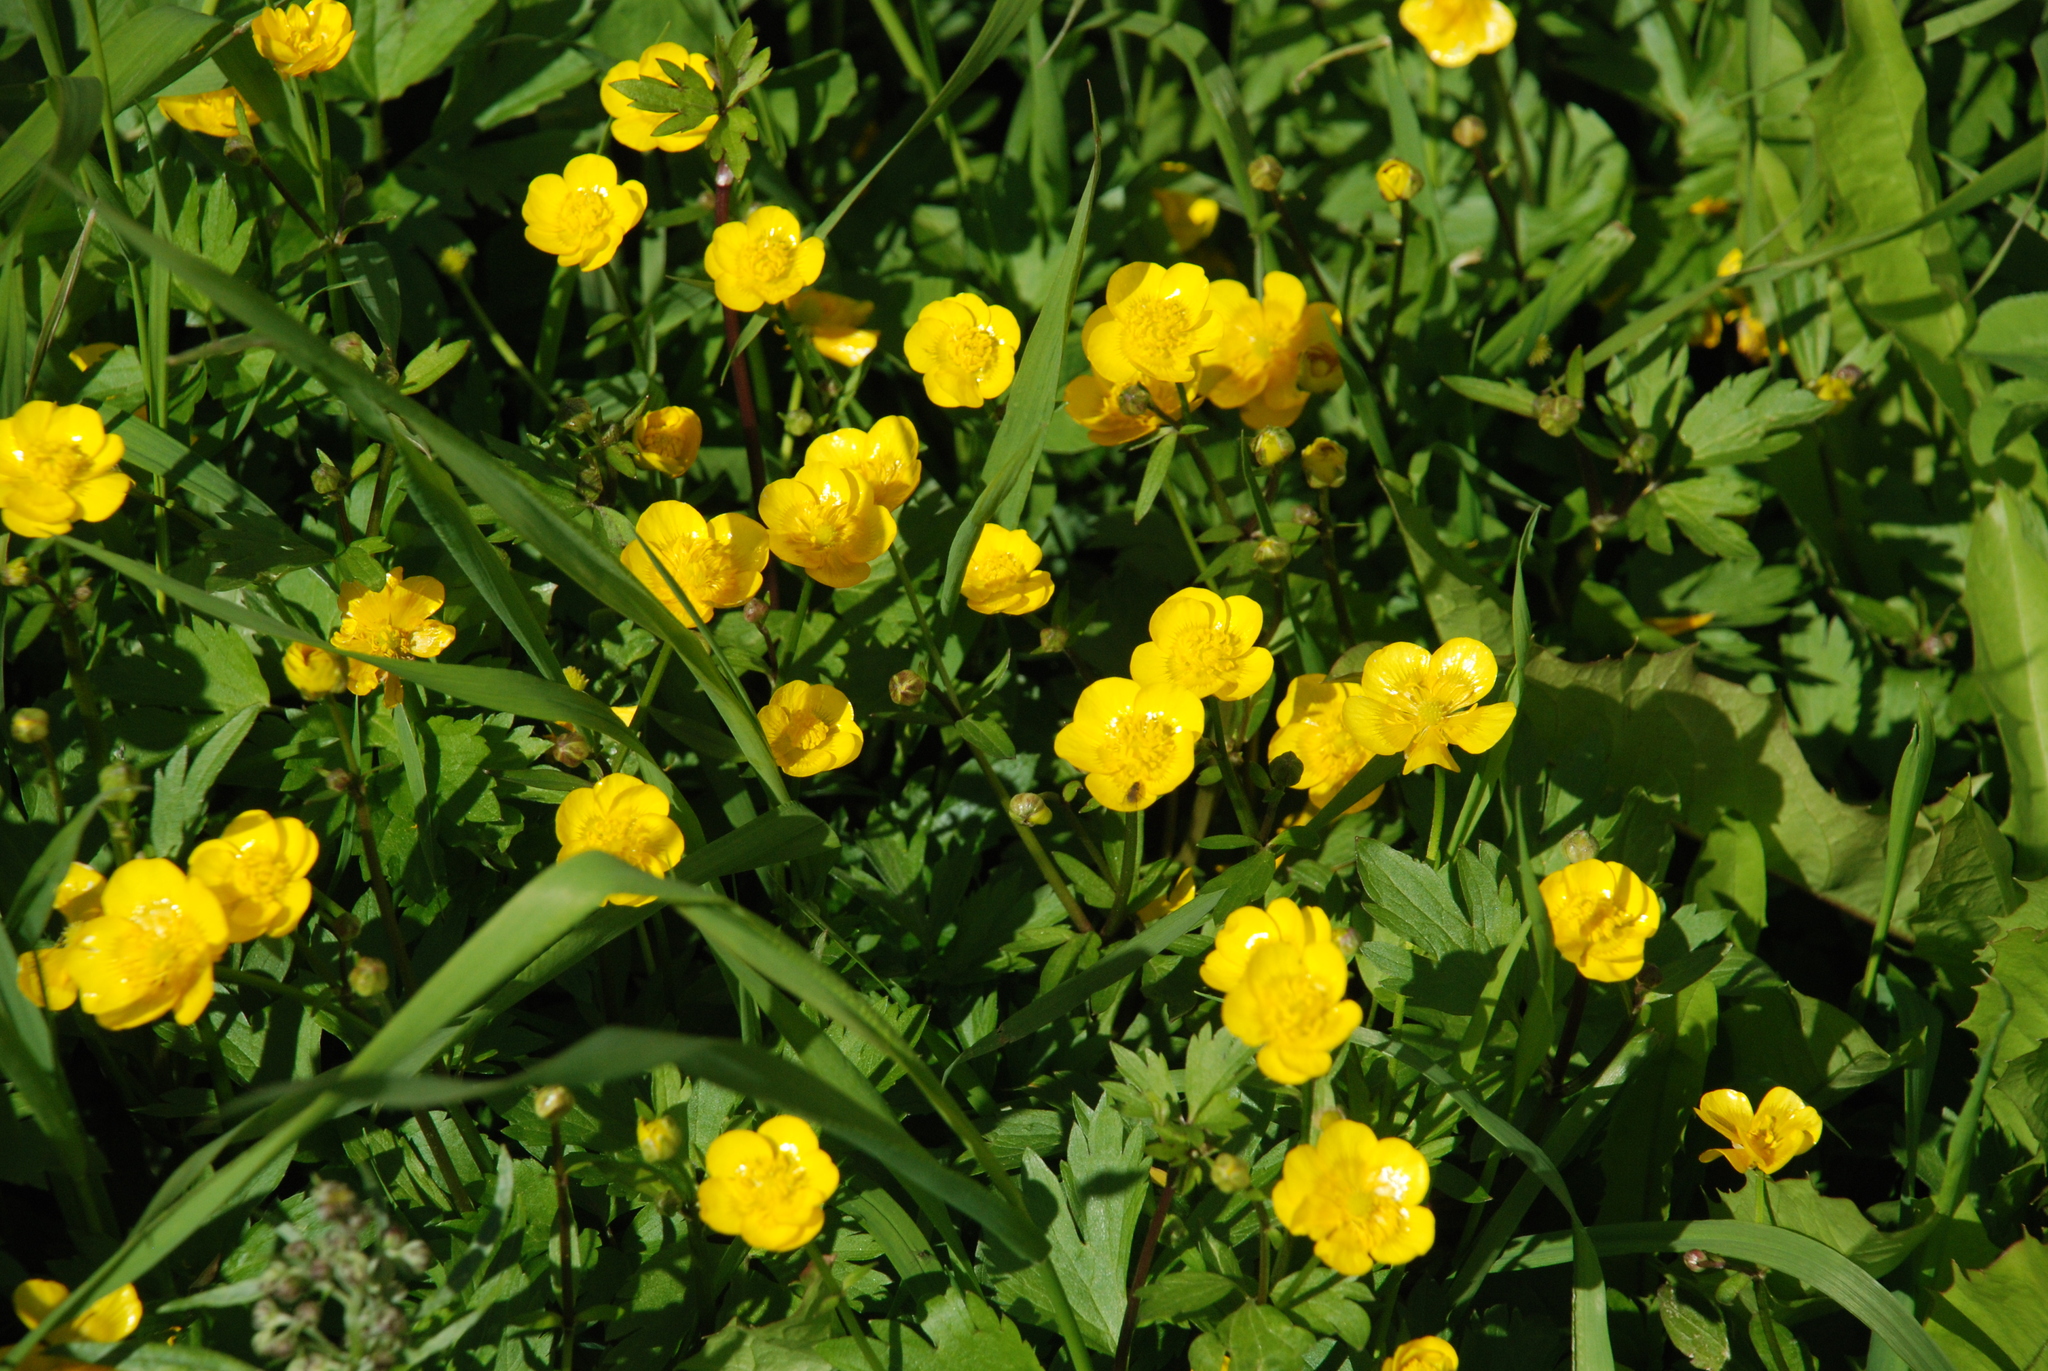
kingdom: Plantae
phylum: Tracheophyta
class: Magnoliopsida
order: Ranunculales
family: Ranunculaceae
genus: Ranunculus
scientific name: Ranunculus repens
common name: Creeping buttercup
